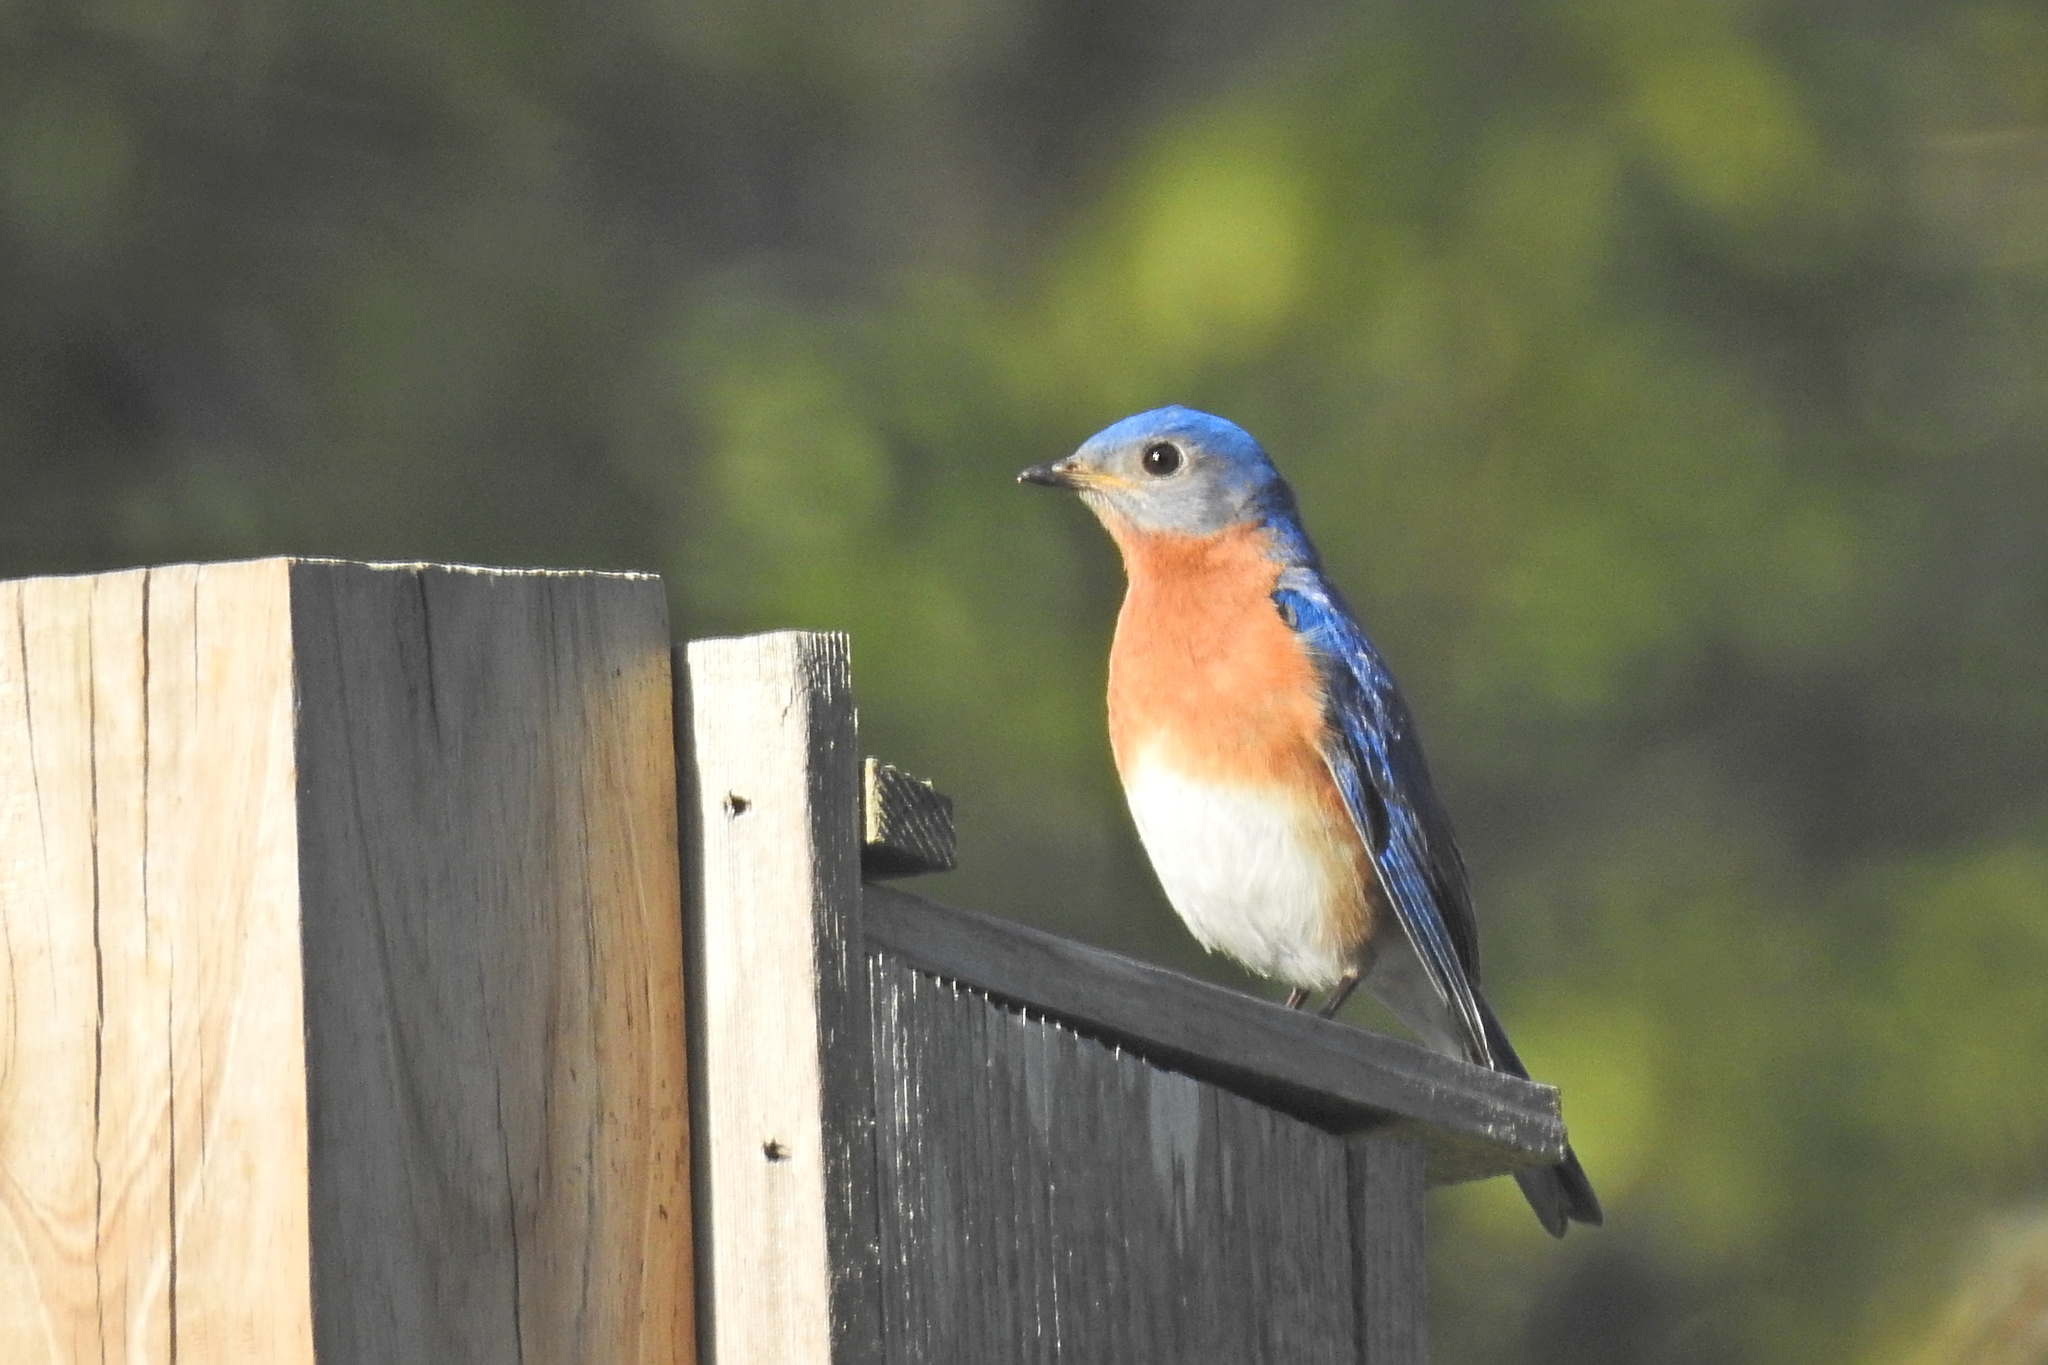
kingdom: Animalia
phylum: Chordata
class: Aves
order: Passeriformes
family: Turdidae
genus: Sialia
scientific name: Sialia sialis
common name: Eastern bluebird
